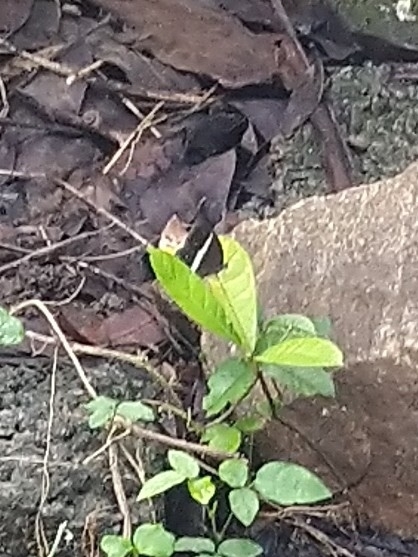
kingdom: Animalia
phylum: Arthropoda
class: Insecta
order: Lepidoptera
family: Nymphalidae
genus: Orsotriaena
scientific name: Orsotriaena medus
